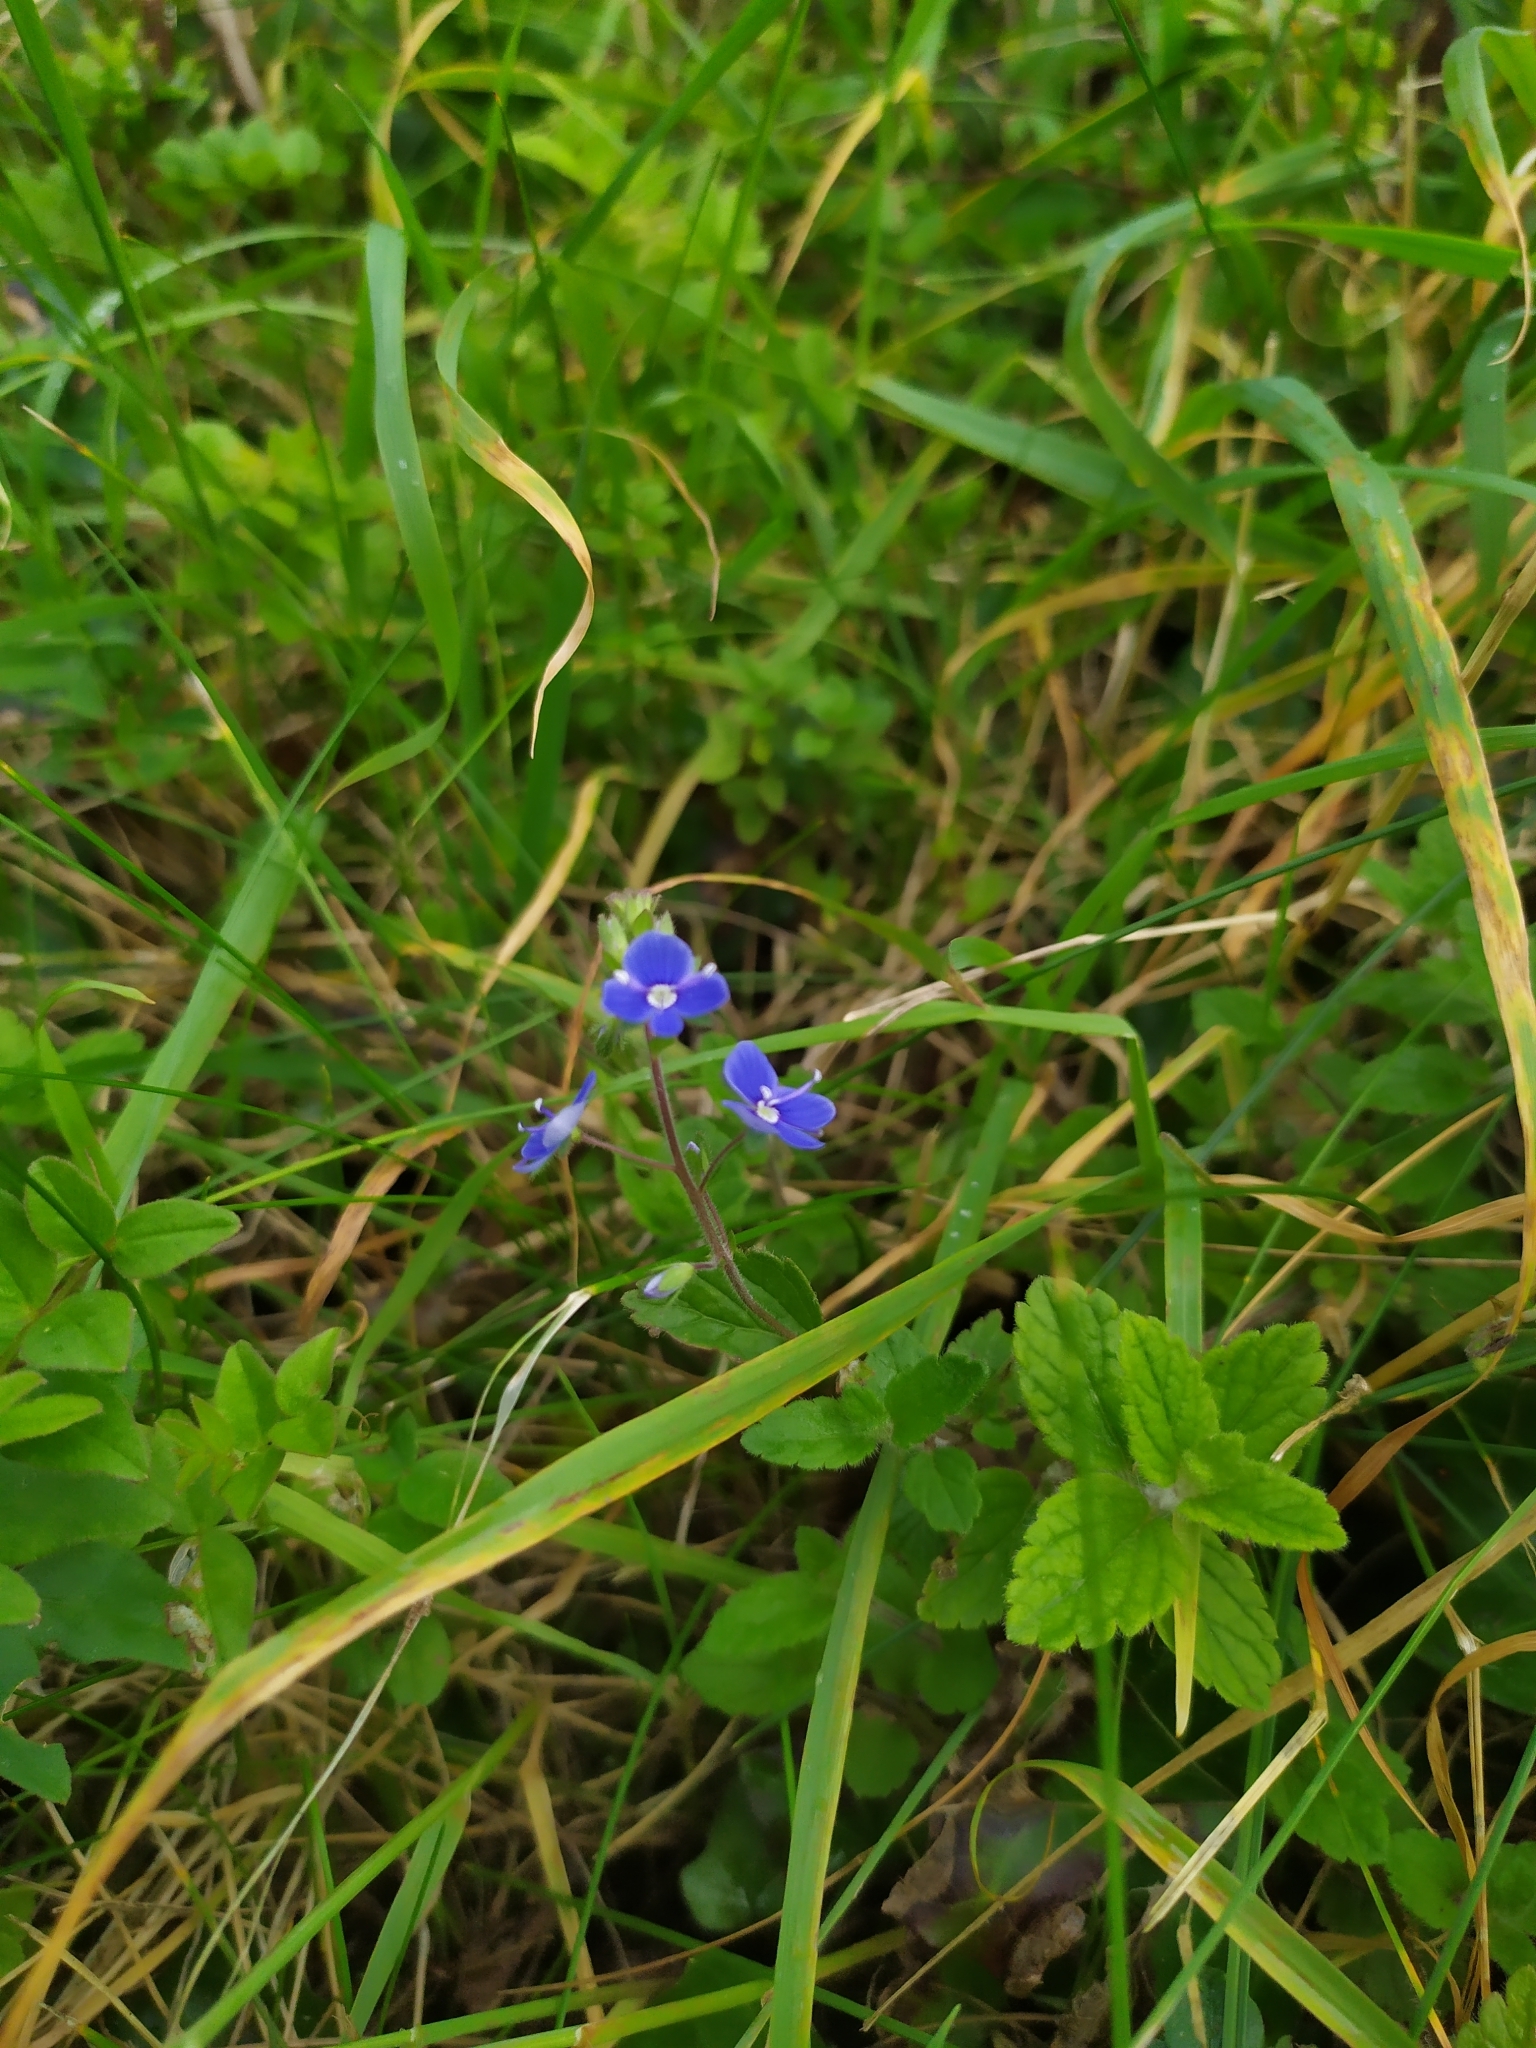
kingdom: Plantae
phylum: Tracheophyta
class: Magnoliopsida
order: Lamiales
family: Plantaginaceae
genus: Veronica
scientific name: Veronica chamaedrys
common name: Germander speedwell
